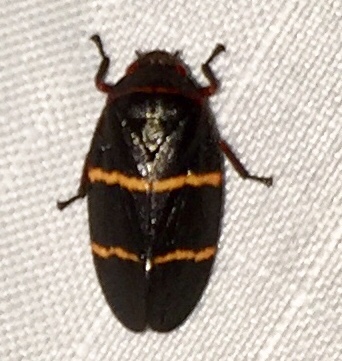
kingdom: Animalia
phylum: Arthropoda
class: Insecta
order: Hemiptera
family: Cercopidae
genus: Prosapia
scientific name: Prosapia bicincta
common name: Twolined spittlebug
